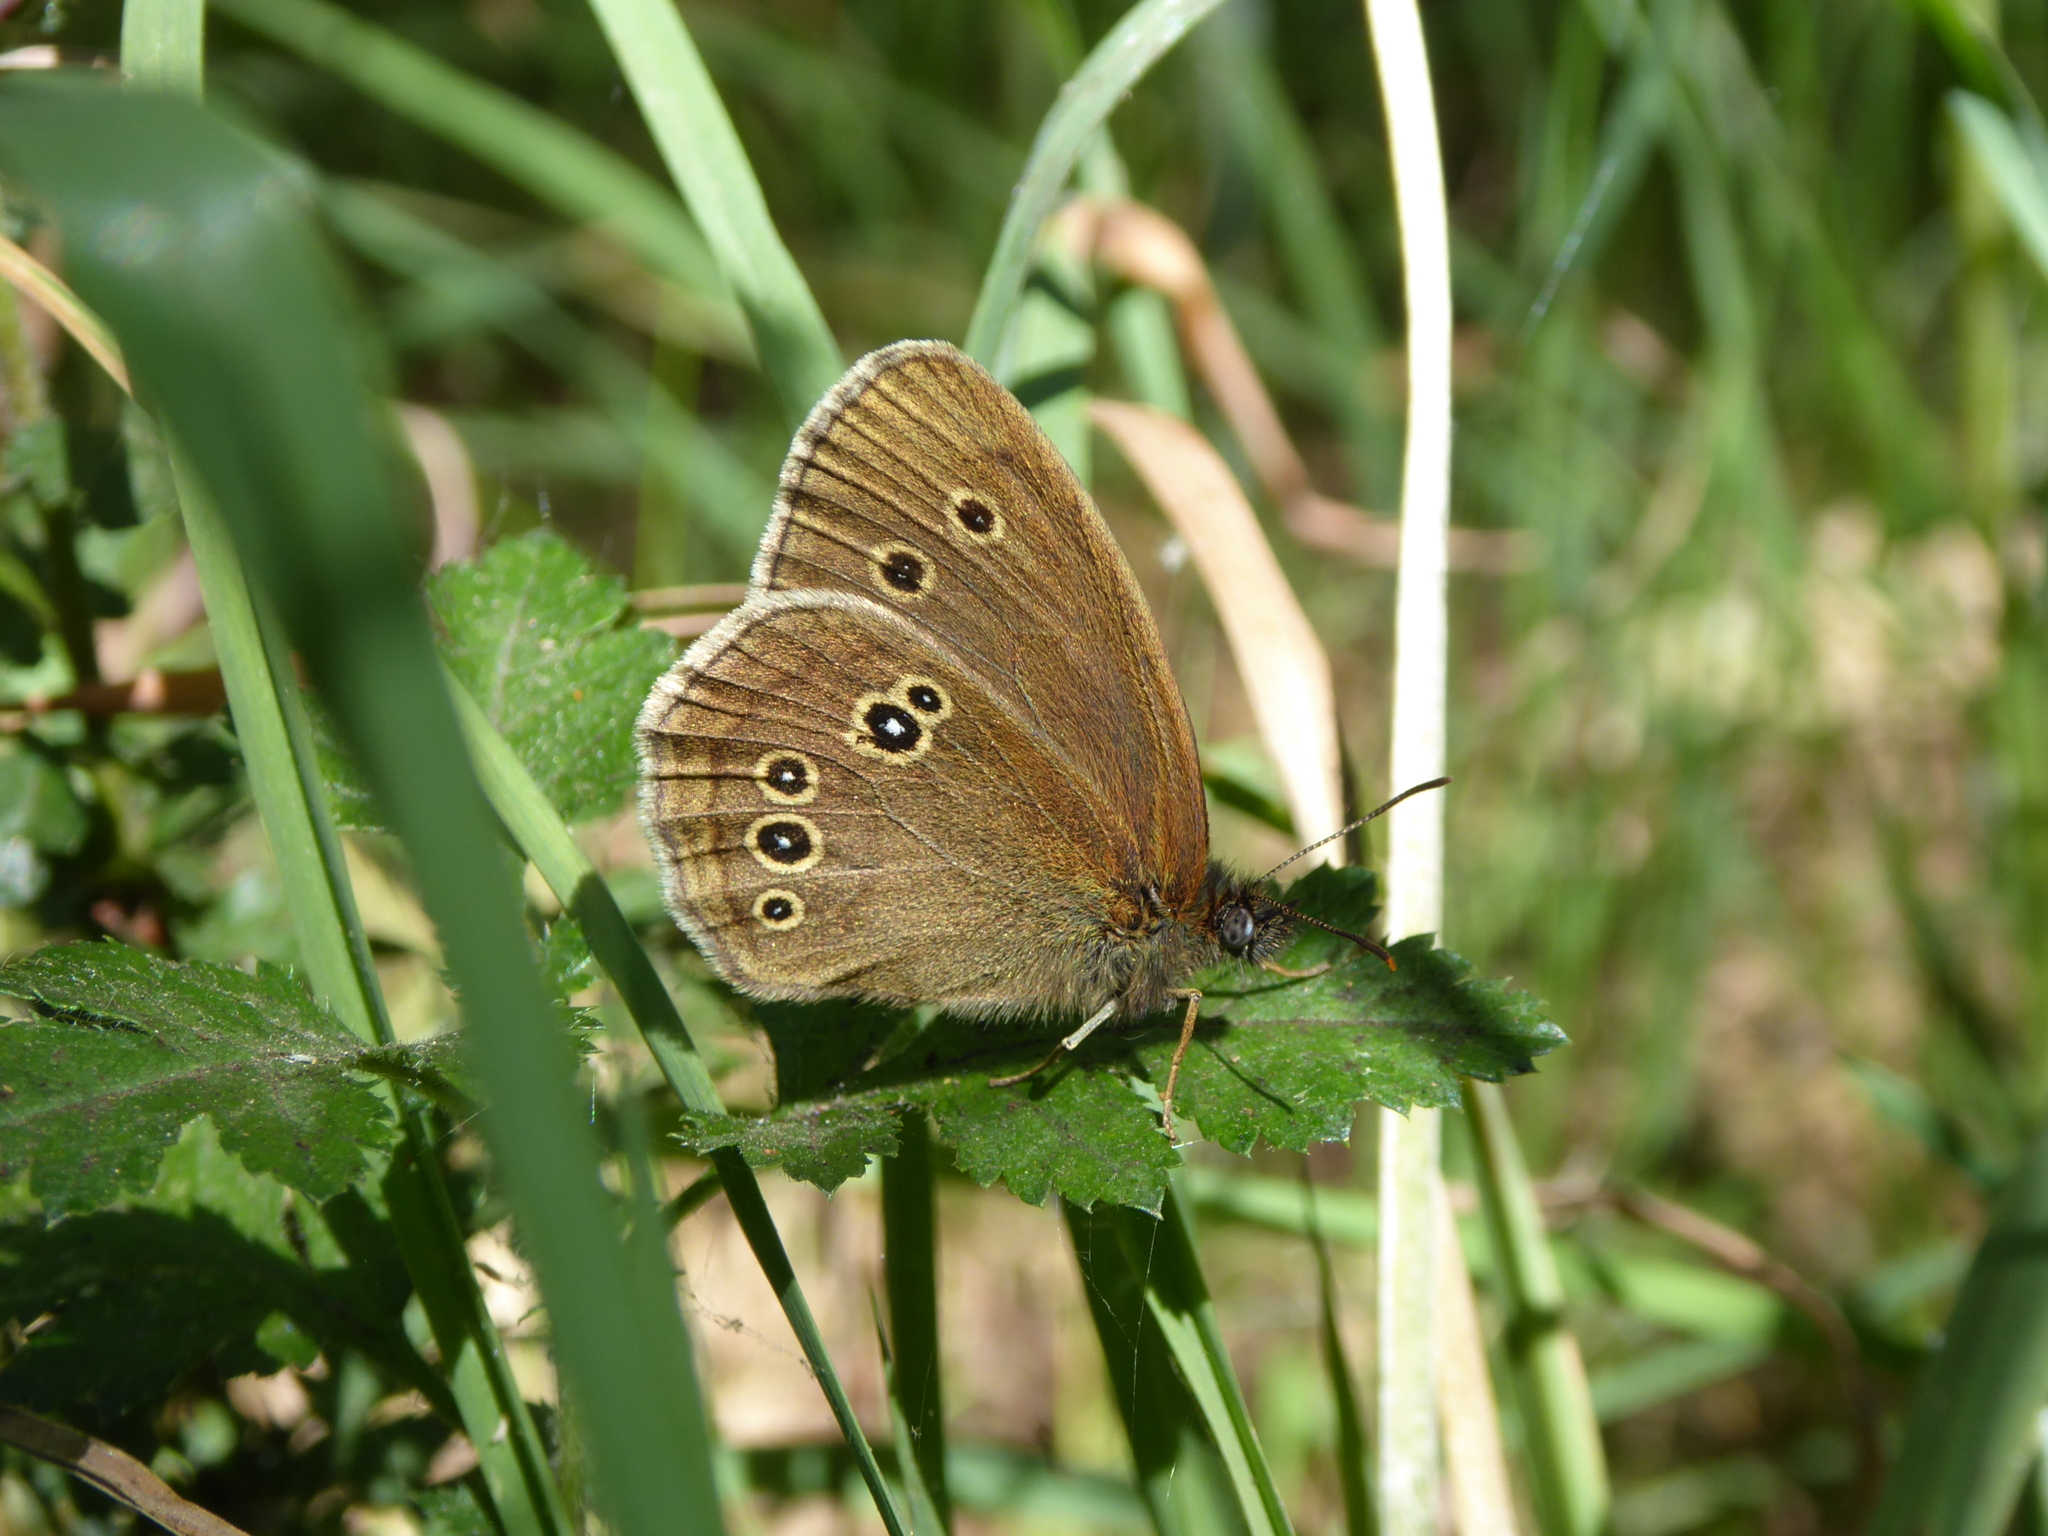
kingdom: Animalia
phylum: Arthropoda
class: Insecta
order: Lepidoptera
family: Nymphalidae
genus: Aphantopus
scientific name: Aphantopus hyperantus
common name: Ringlet
